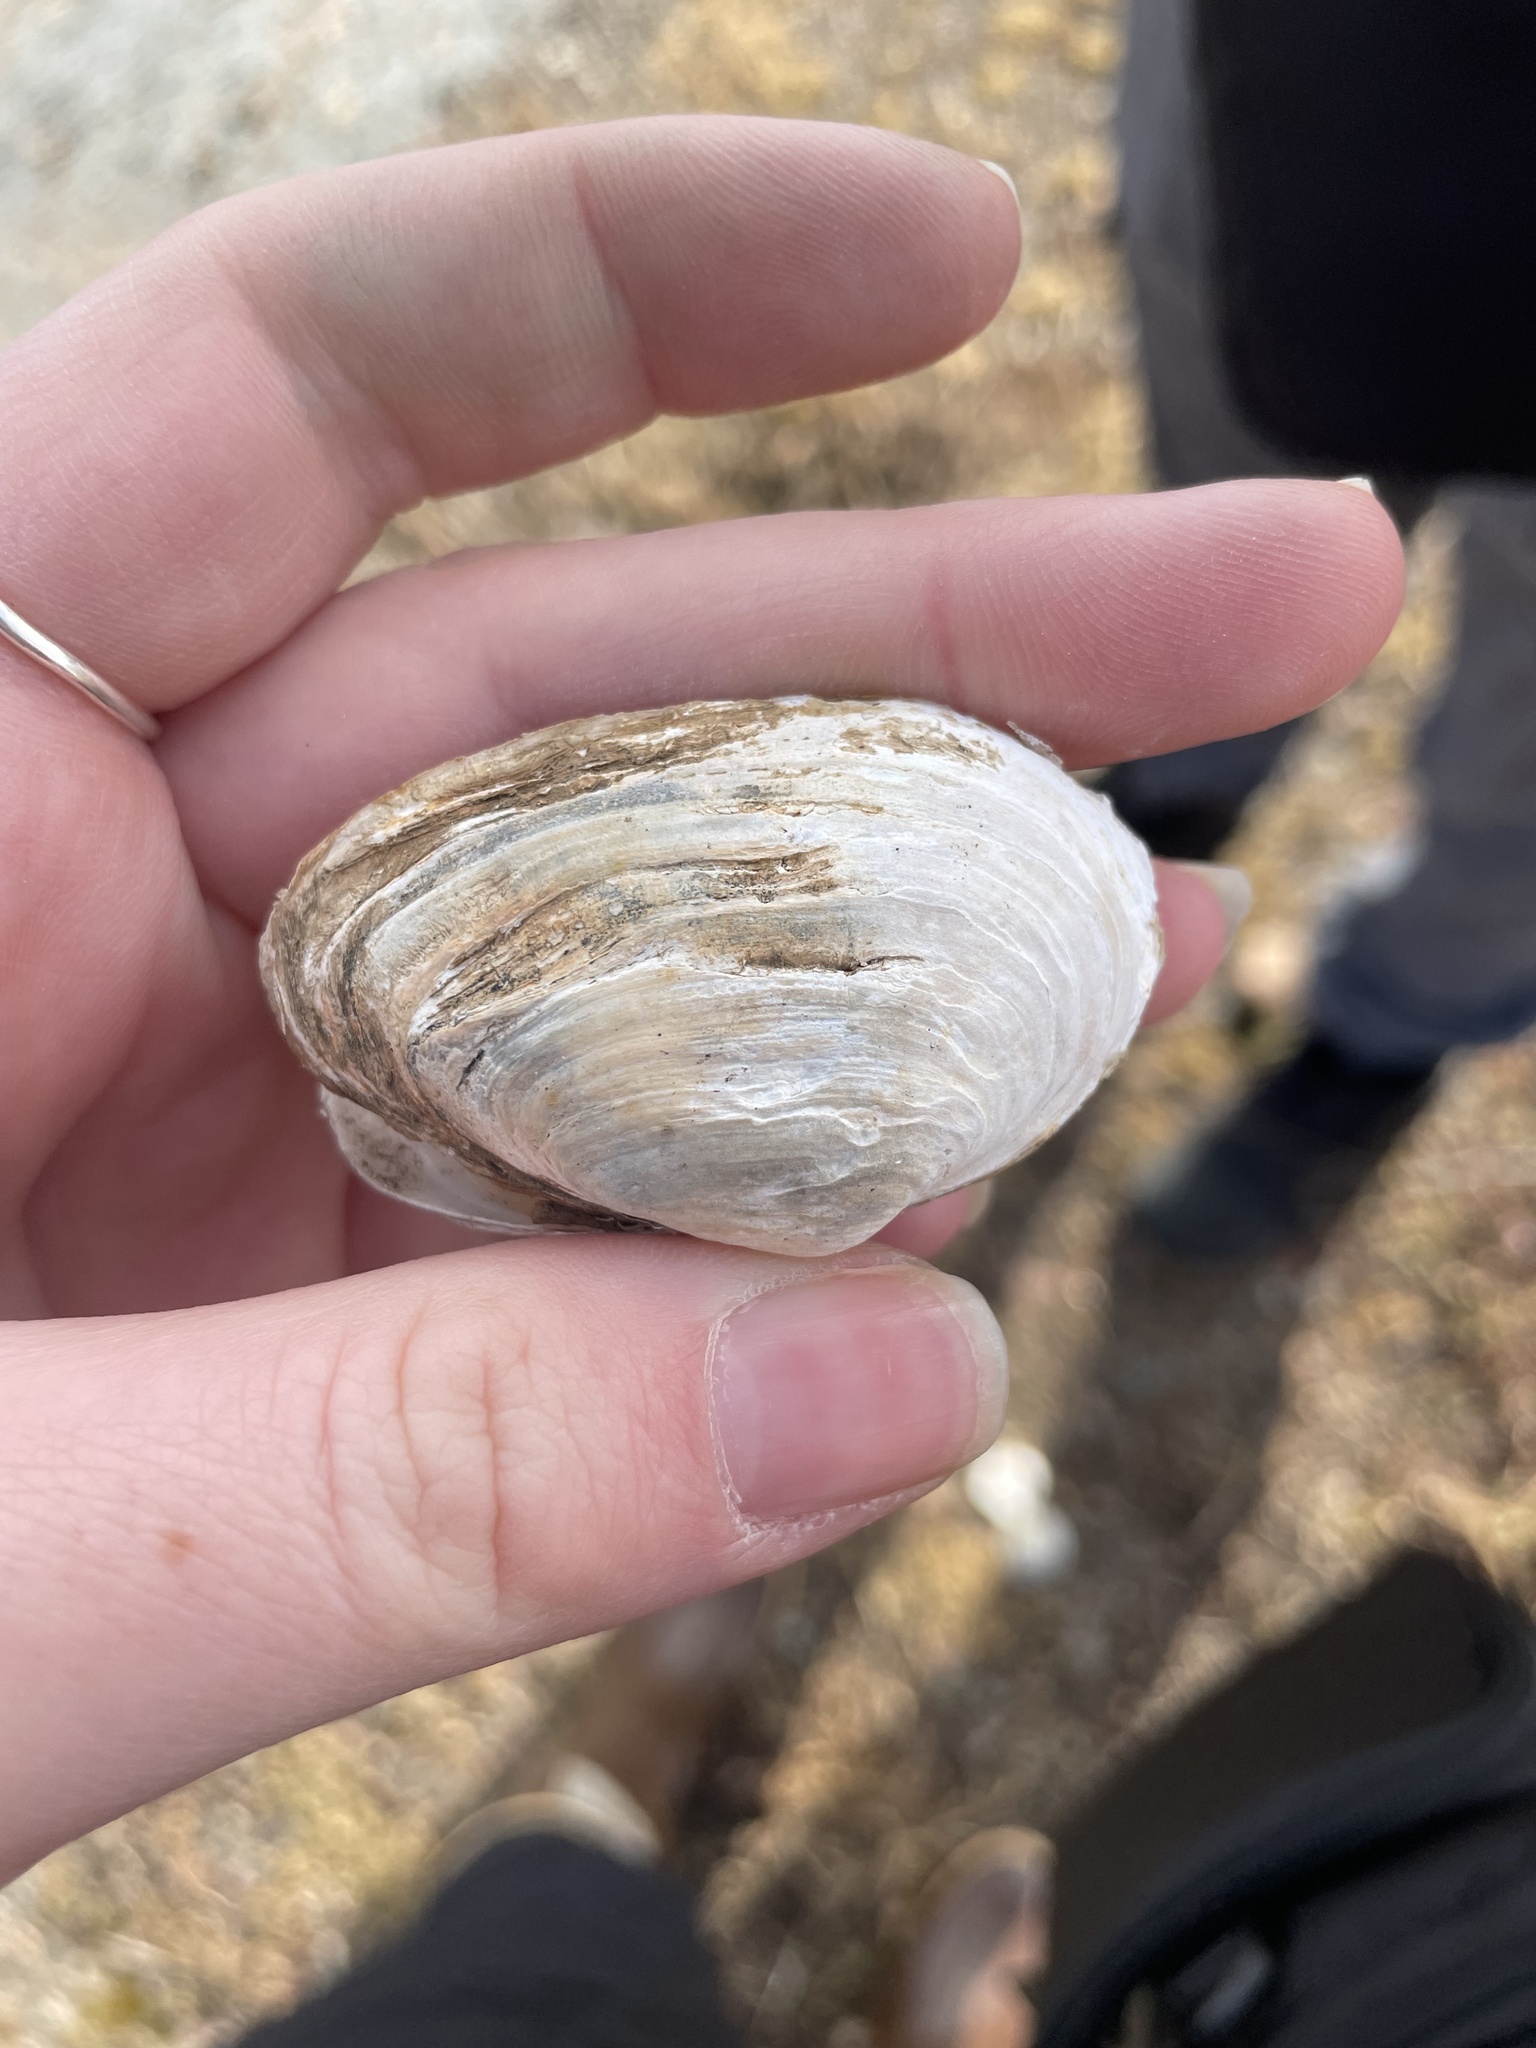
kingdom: Animalia
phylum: Mollusca
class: Bivalvia
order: Myida
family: Myidae
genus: Mya
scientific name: Mya arenaria
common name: Soft-shelled clam
